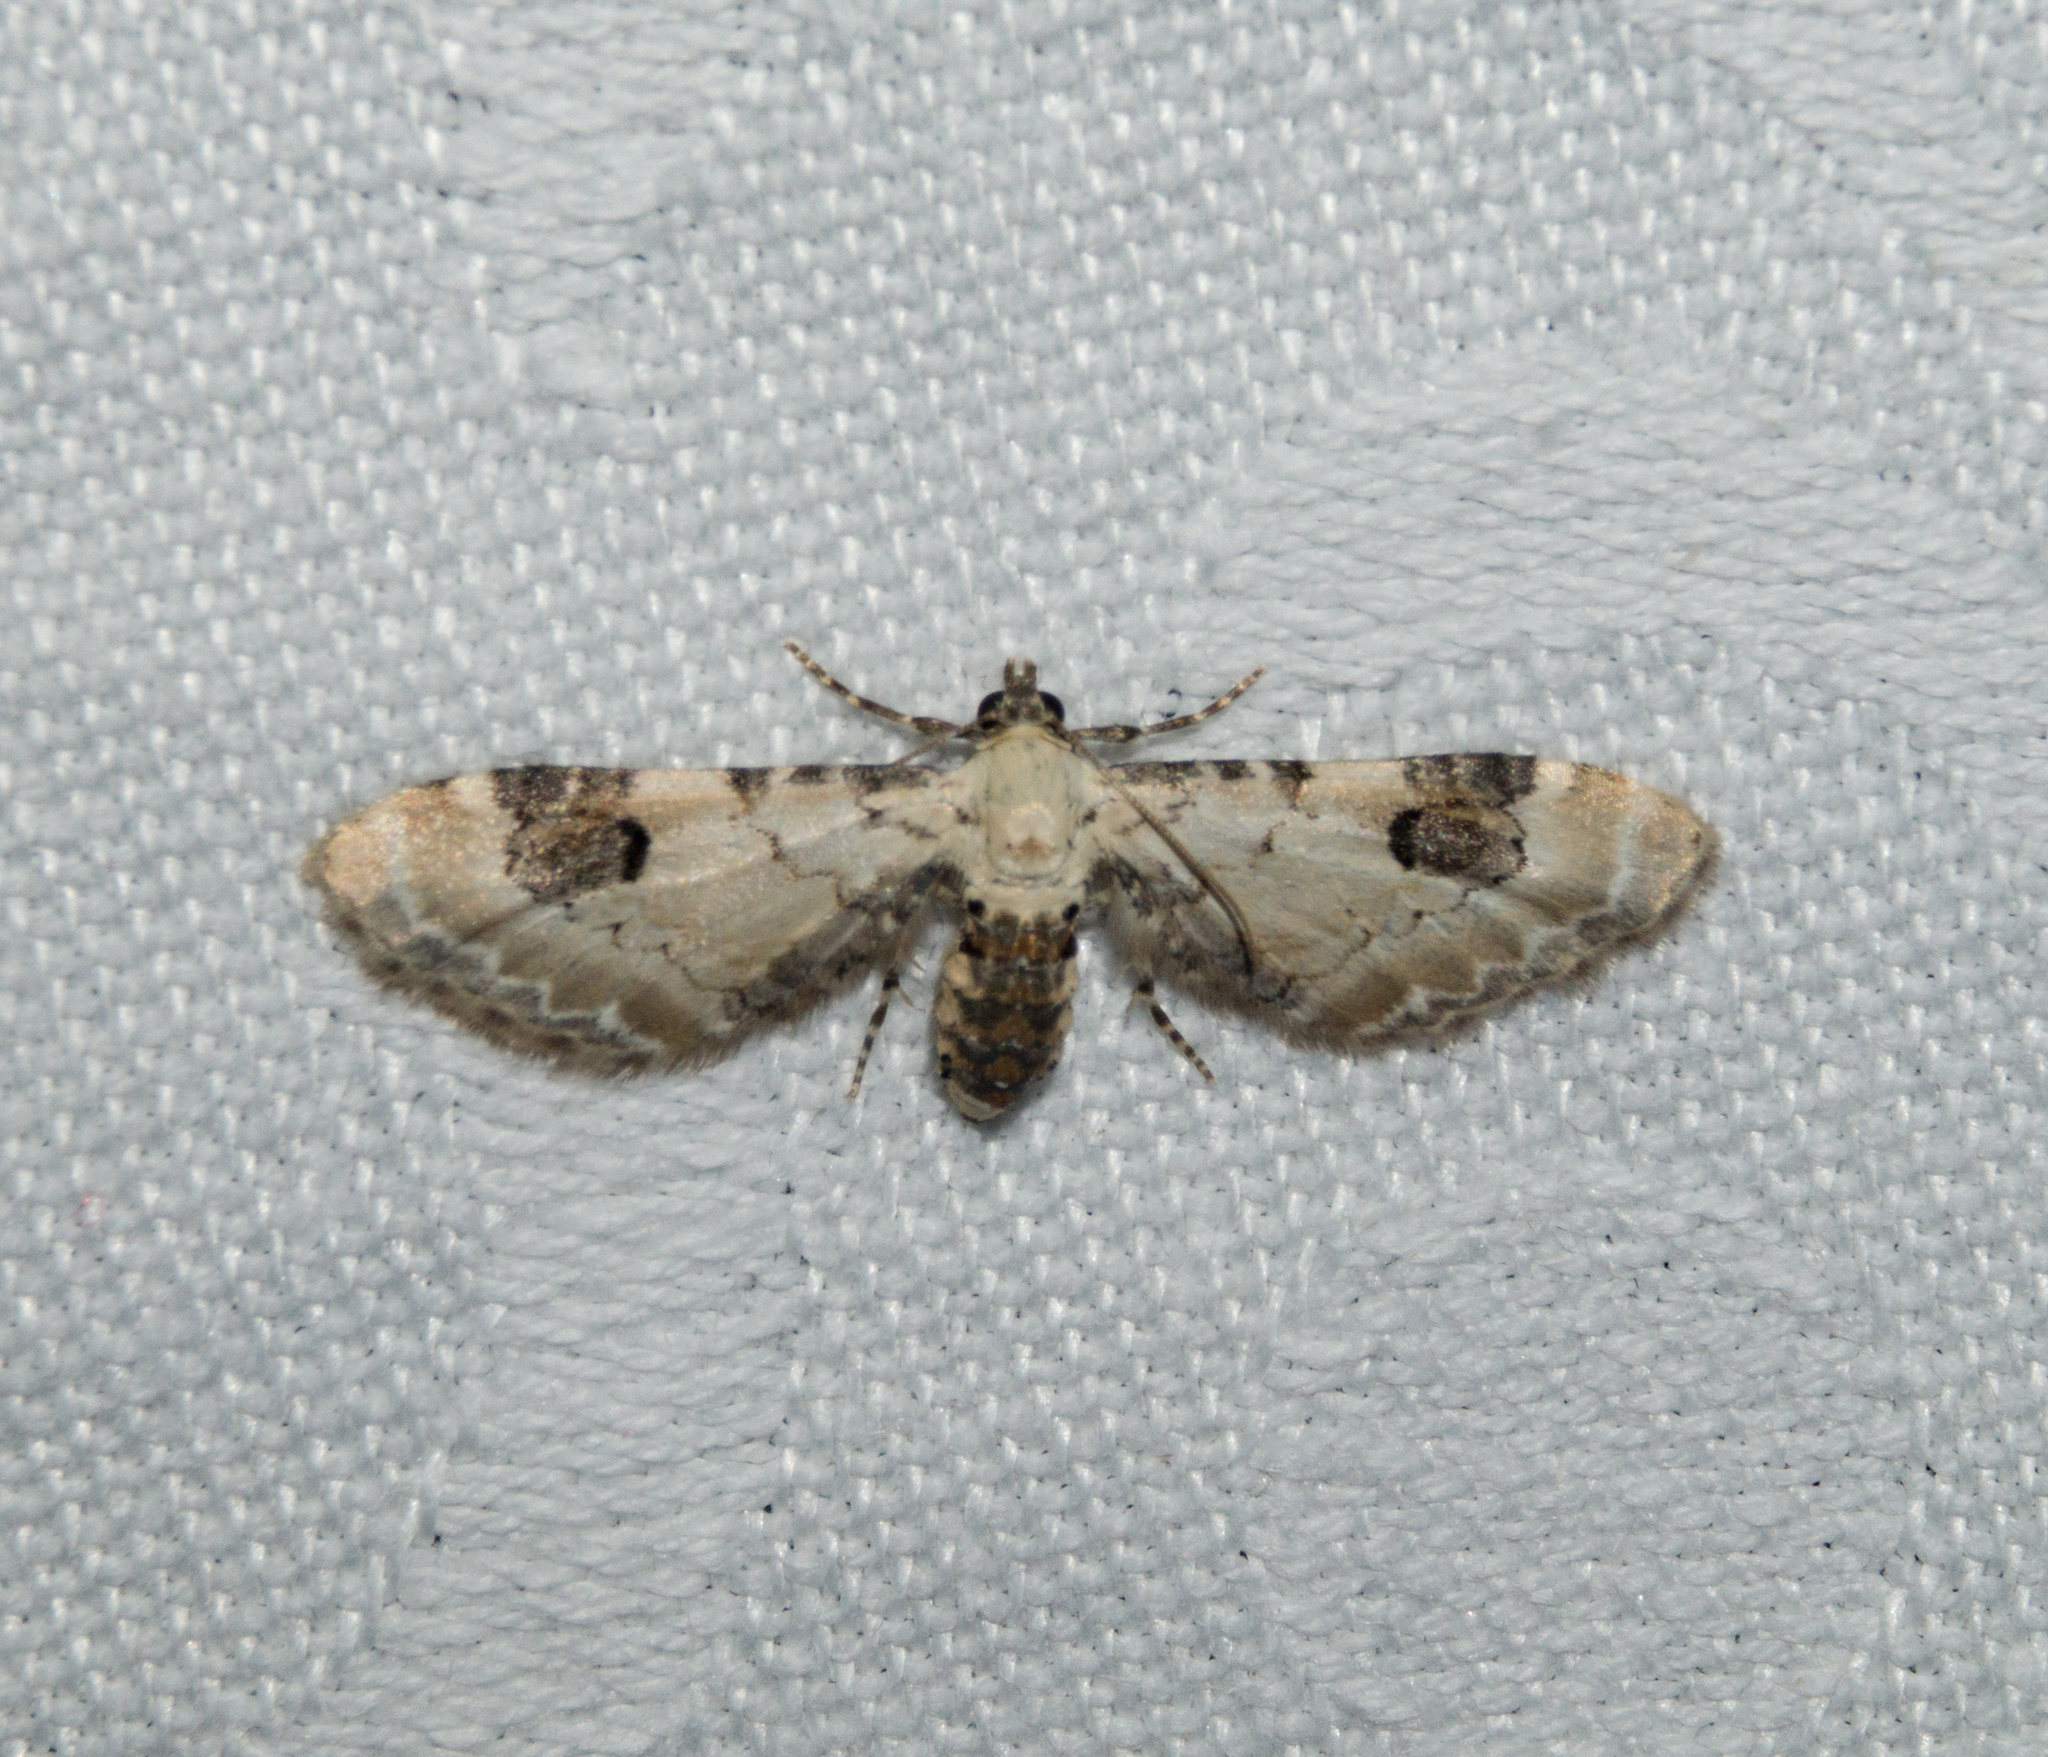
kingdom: Animalia
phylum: Arthropoda
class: Insecta
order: Lepidoptera
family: Geometridae
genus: Eupithecia
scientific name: Eupithecia centaureata
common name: Lime-speck pug
